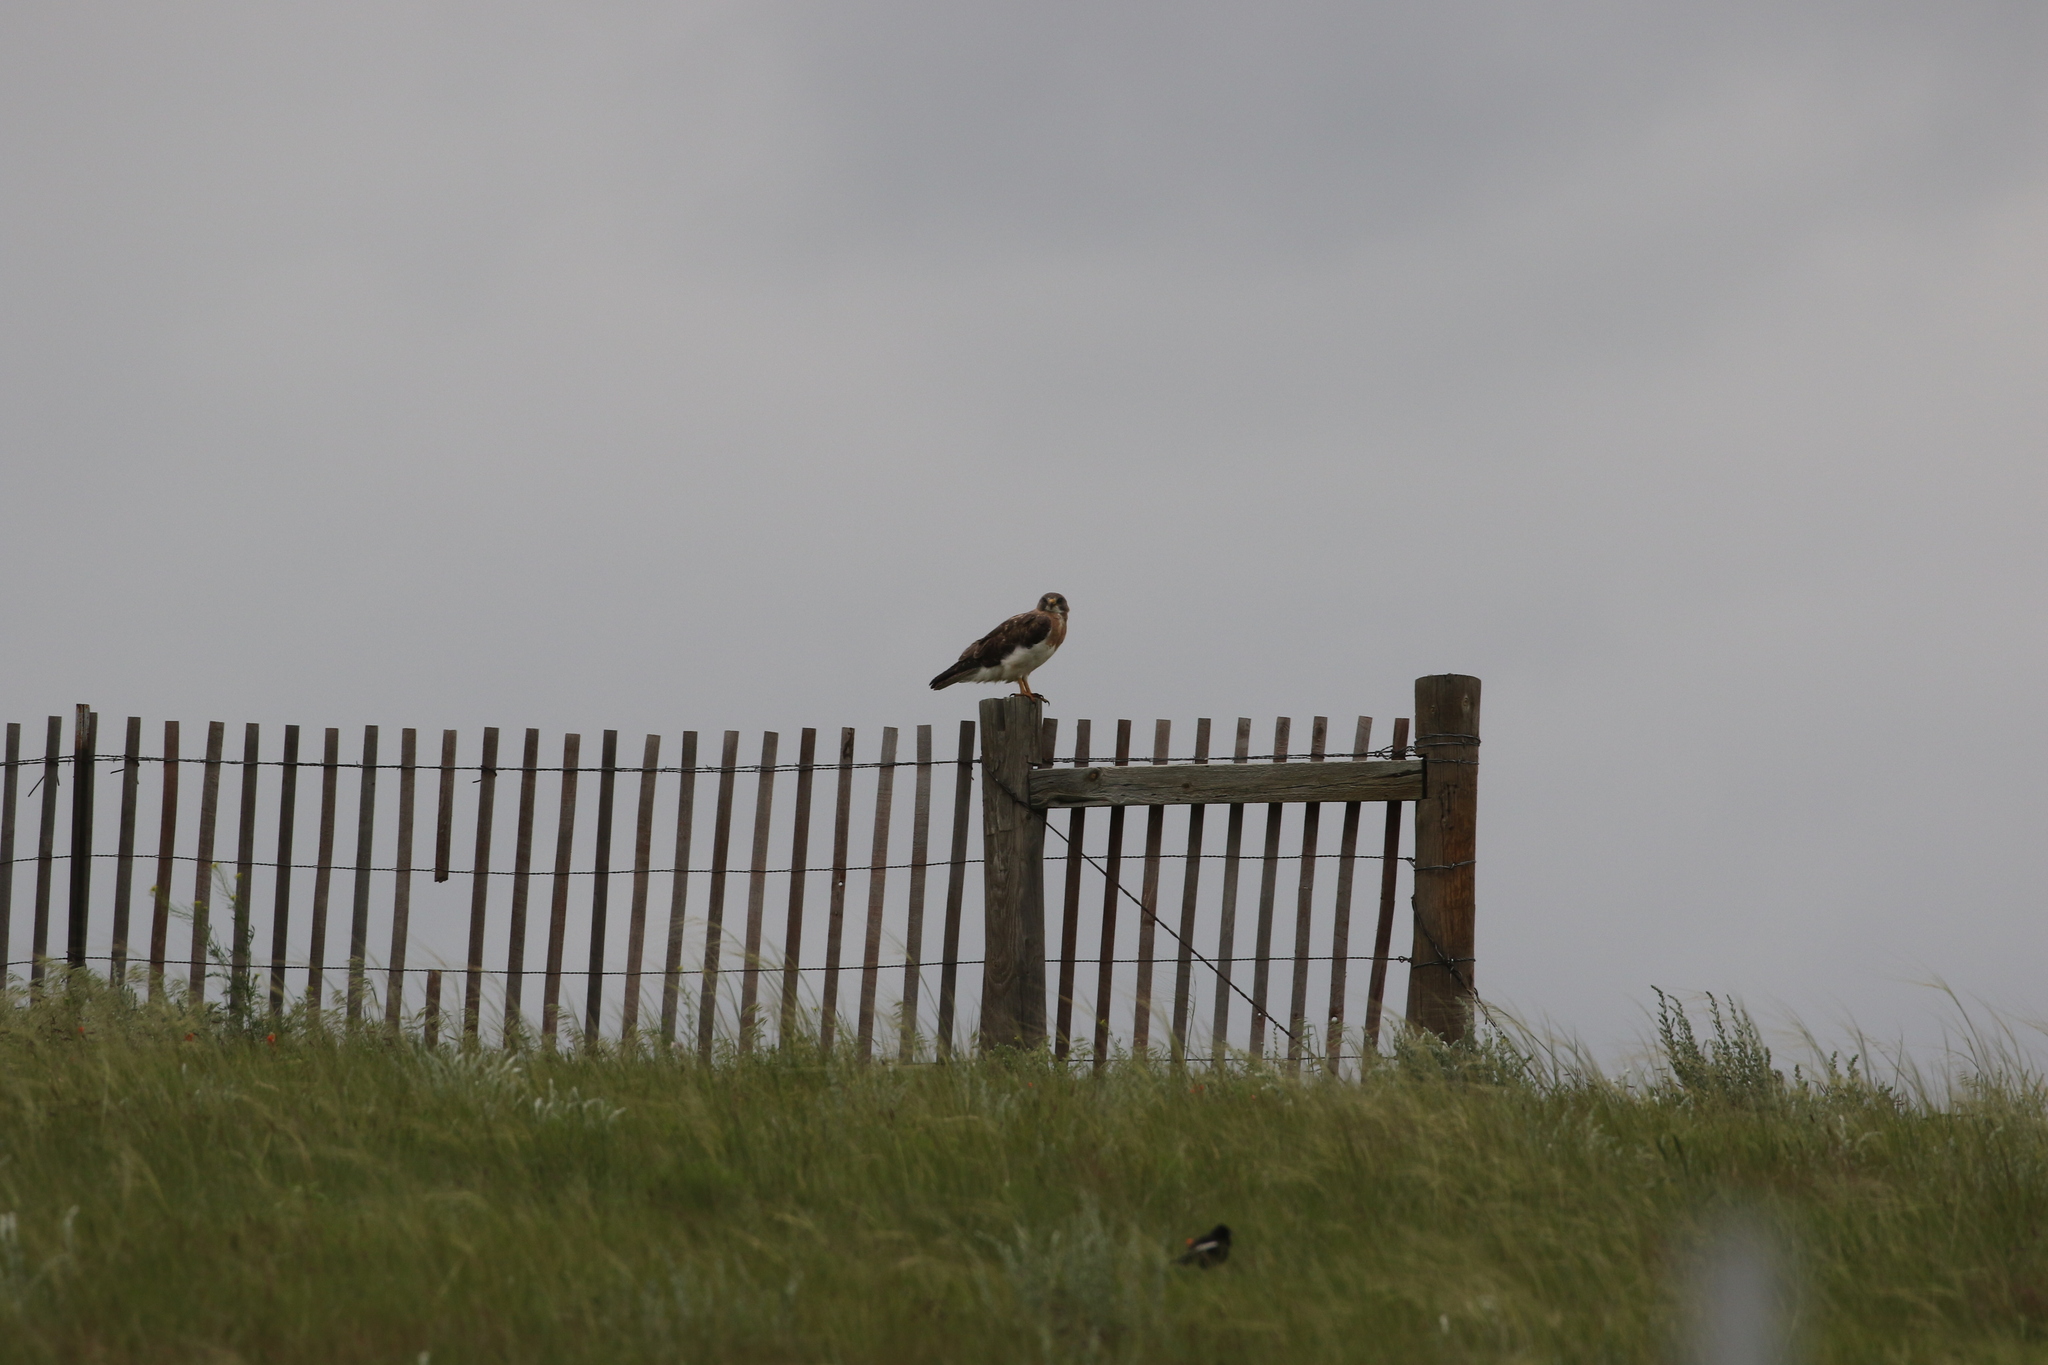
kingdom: Animalia
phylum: Chordata
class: Aves
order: Accipitriformes
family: Accipitridae
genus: Buteo
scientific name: Buteo swainsoni
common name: Swainson's hawk
